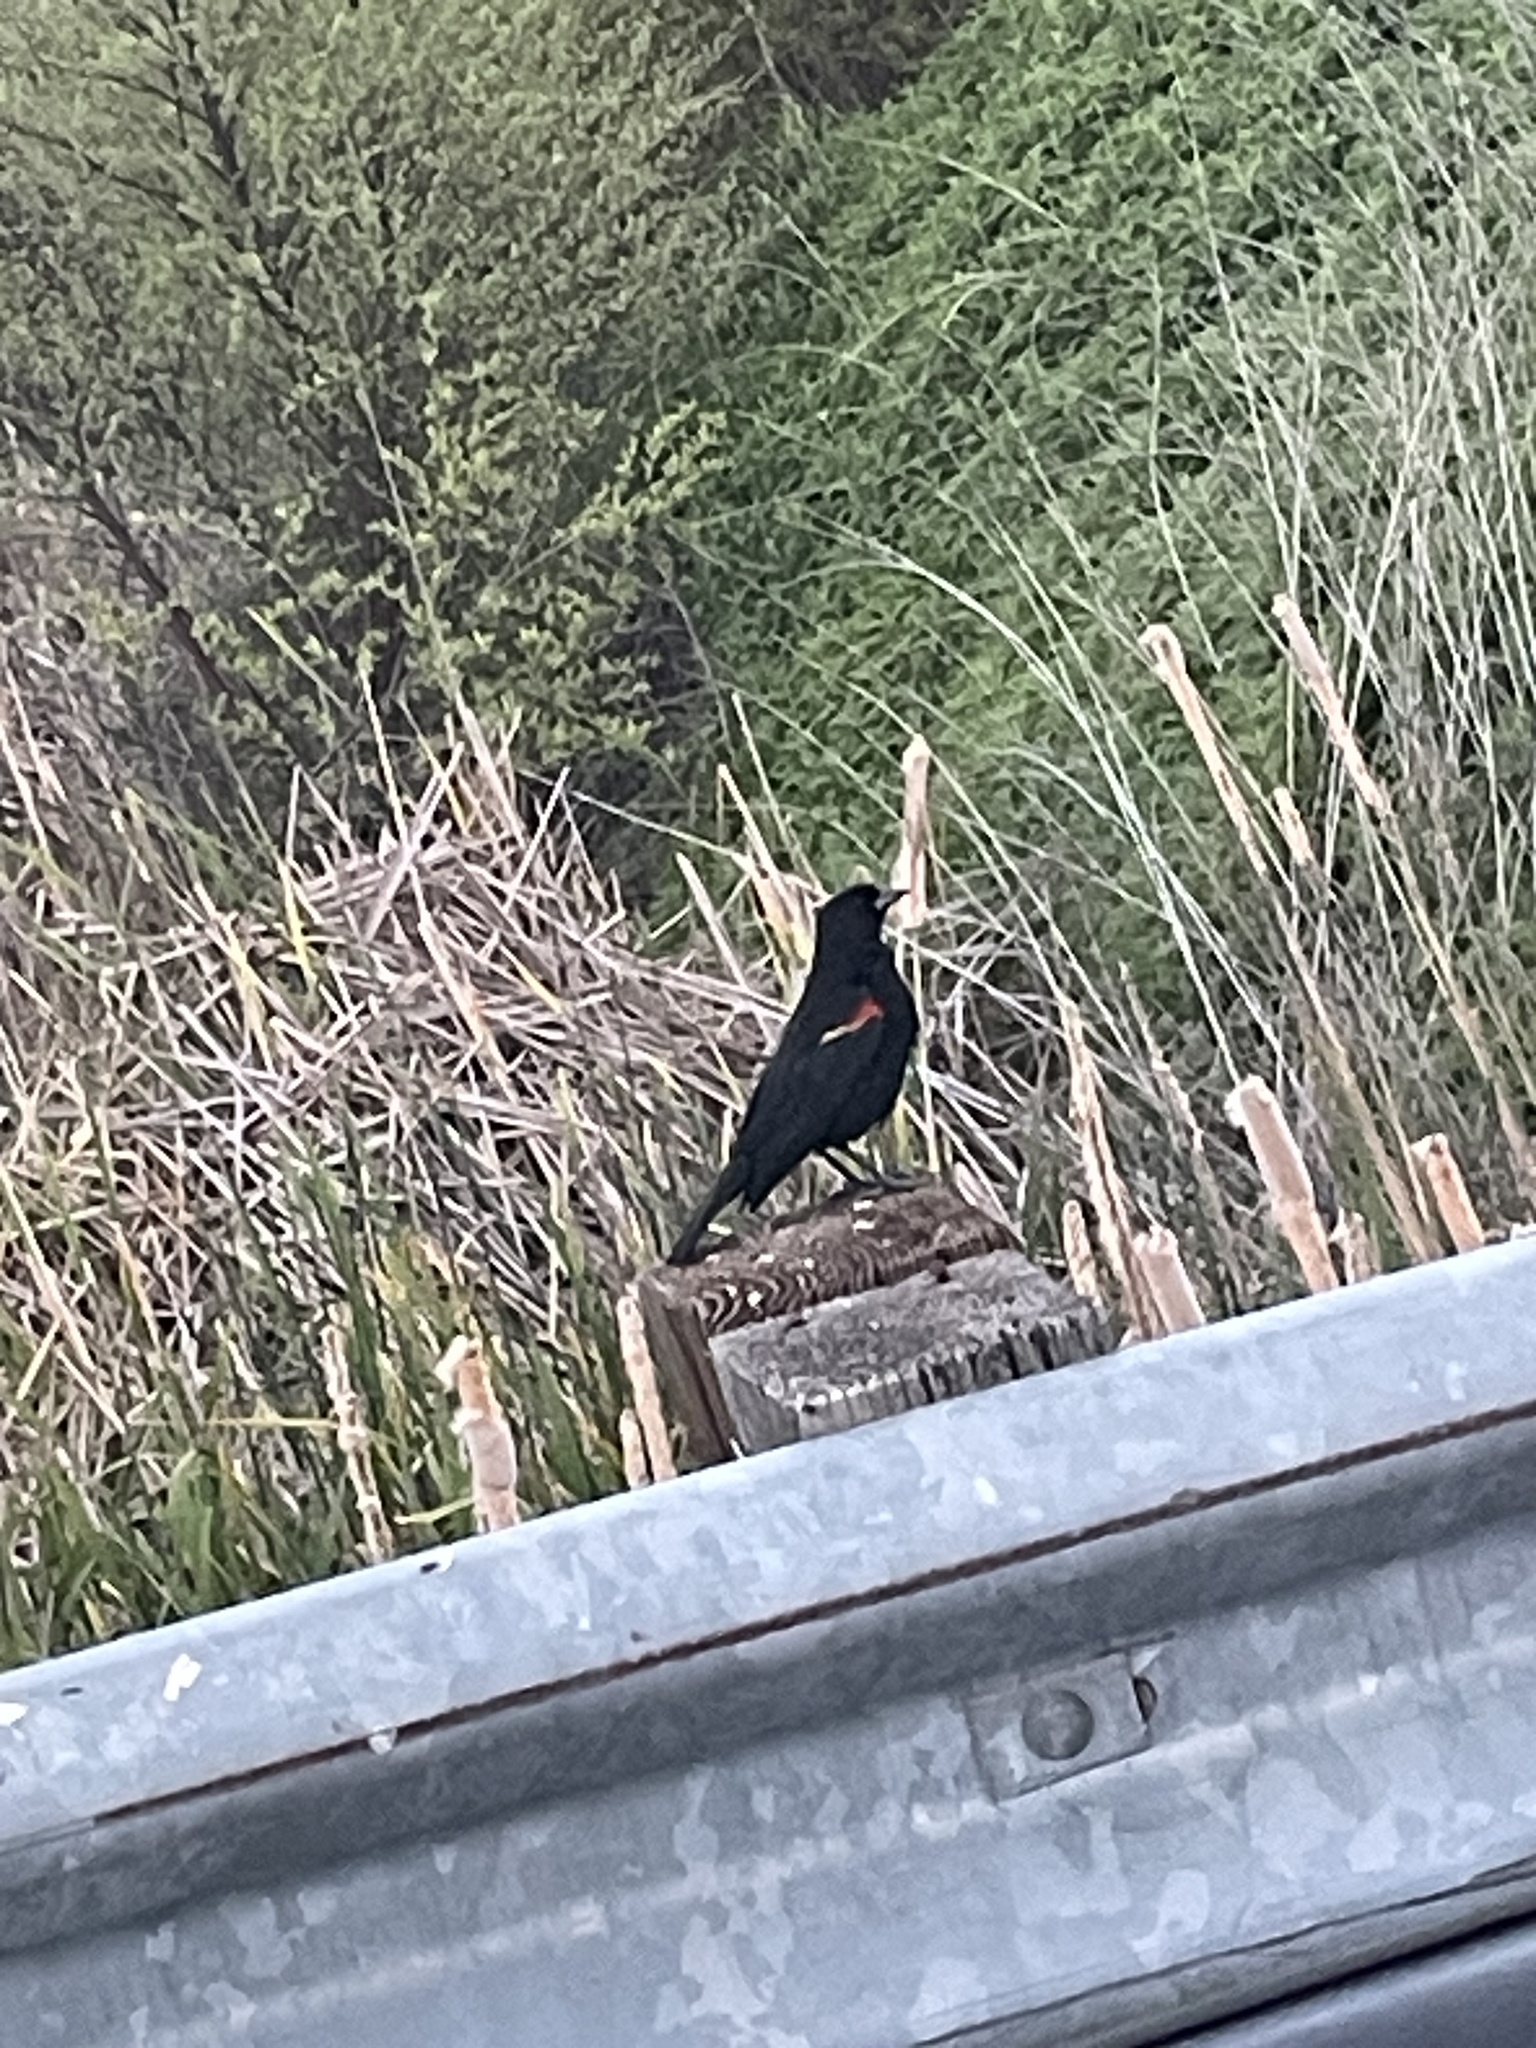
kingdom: Animalia
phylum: Chordata
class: Aves
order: Passeriformes
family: Icteridae
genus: Agelaius
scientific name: Agelaius phoeniceus
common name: Red-winged blackbird
